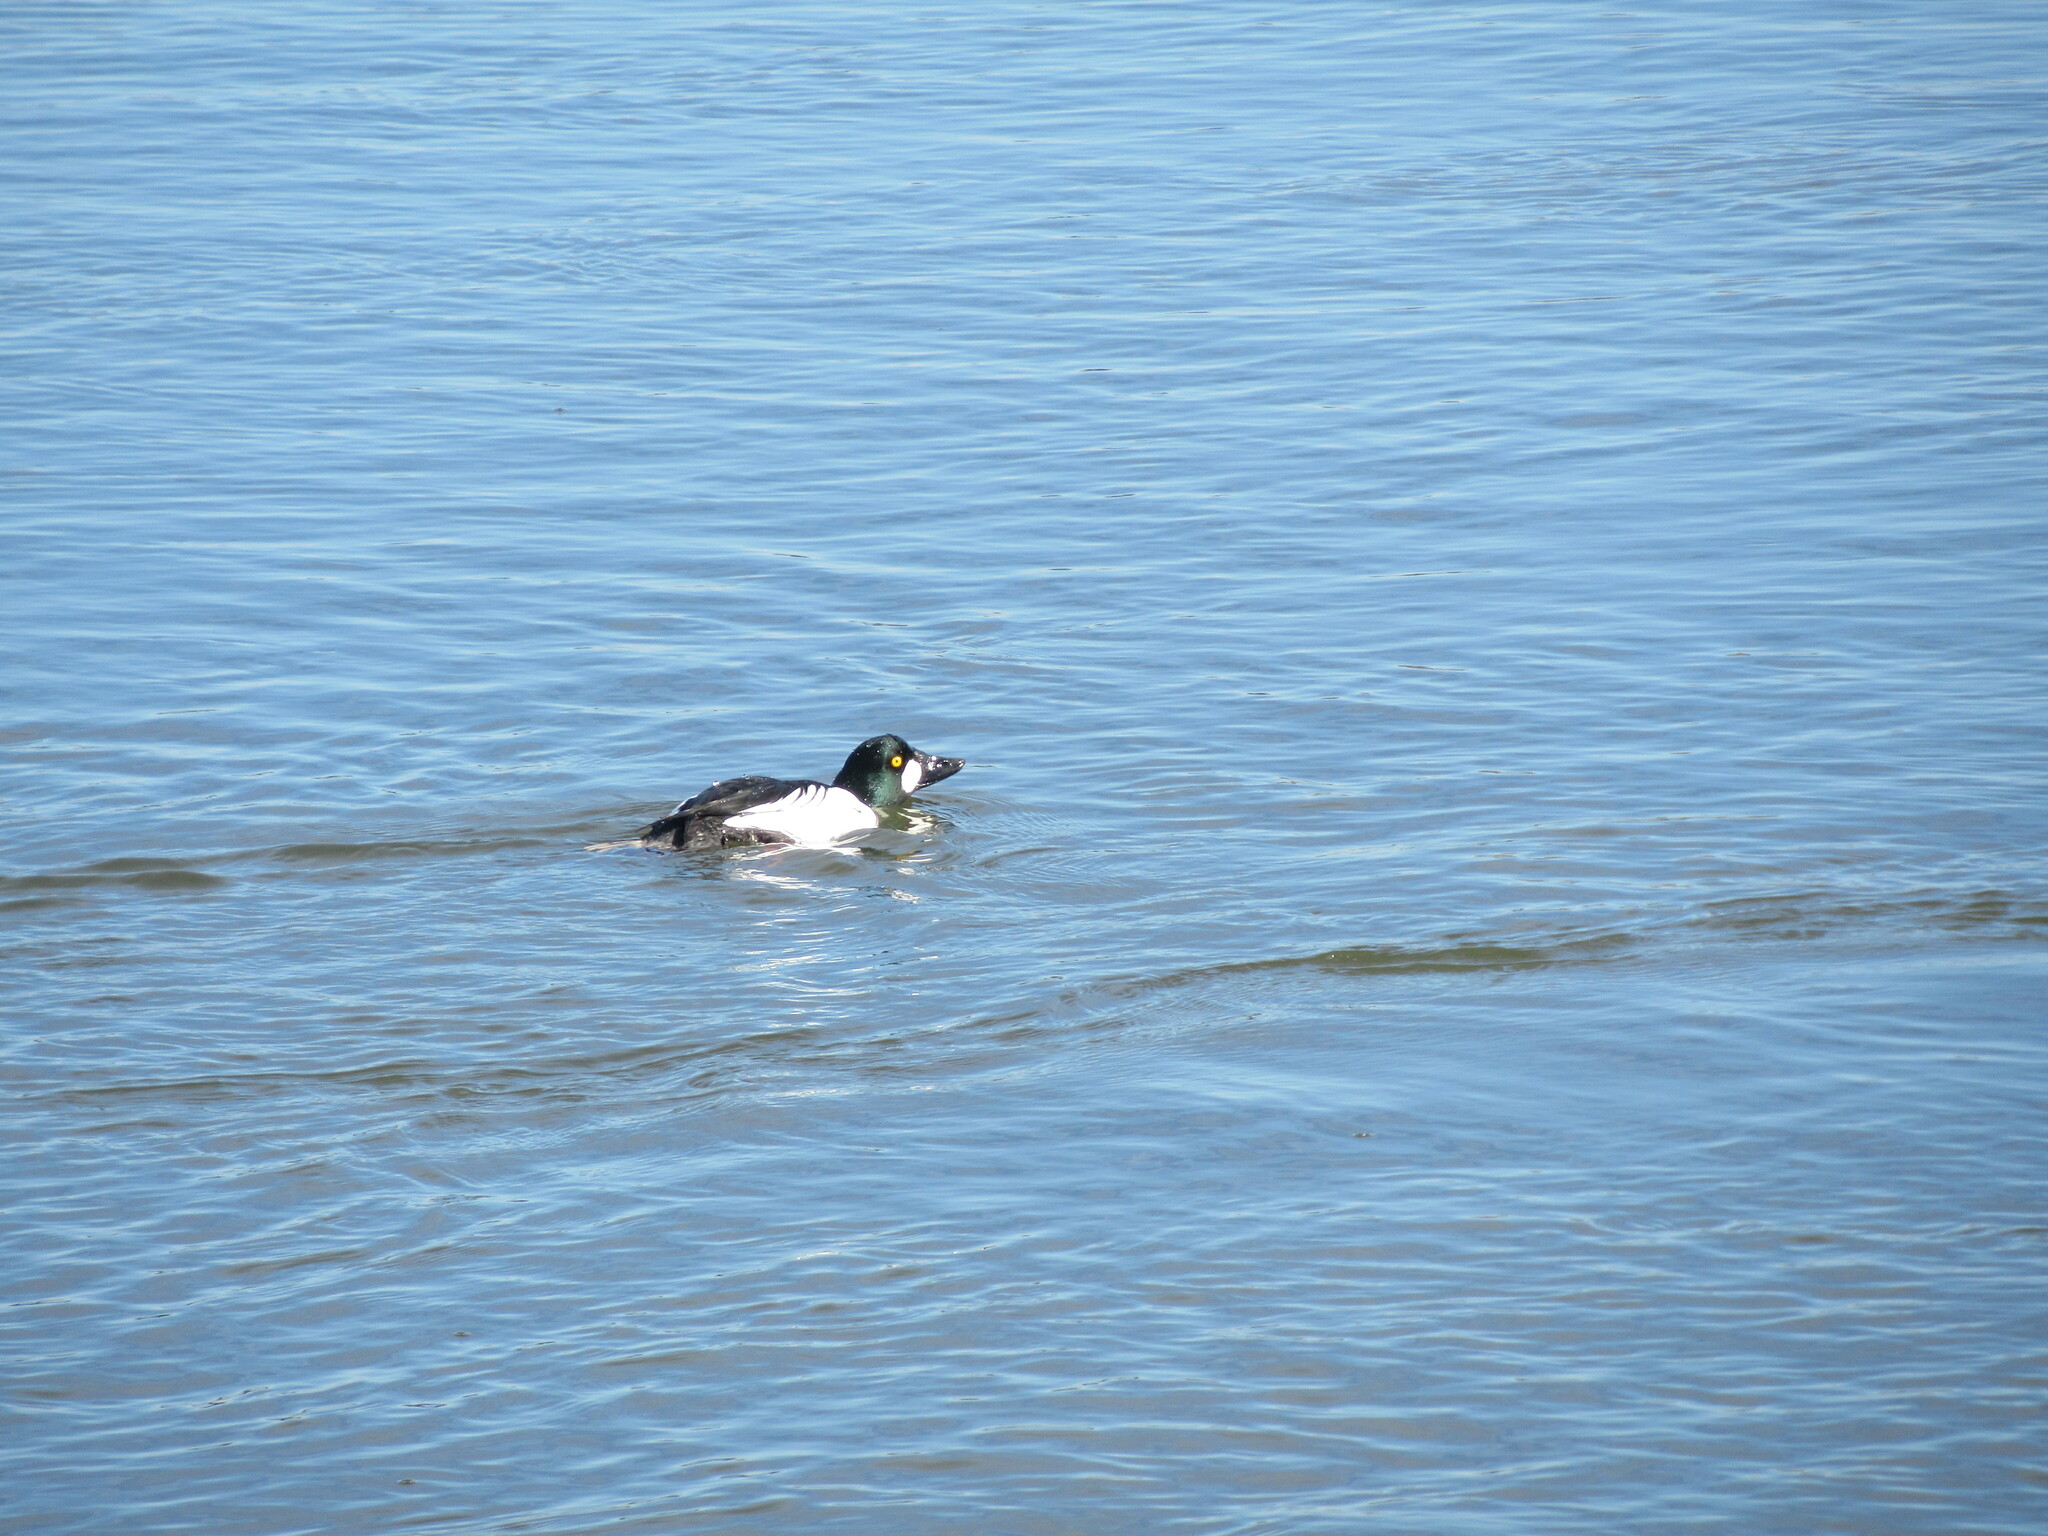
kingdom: Animalia
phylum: Chordata
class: Aves
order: Anseriformes
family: Anatidae
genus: Bucephala
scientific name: Bucephala clangula
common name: Common goldeneye
